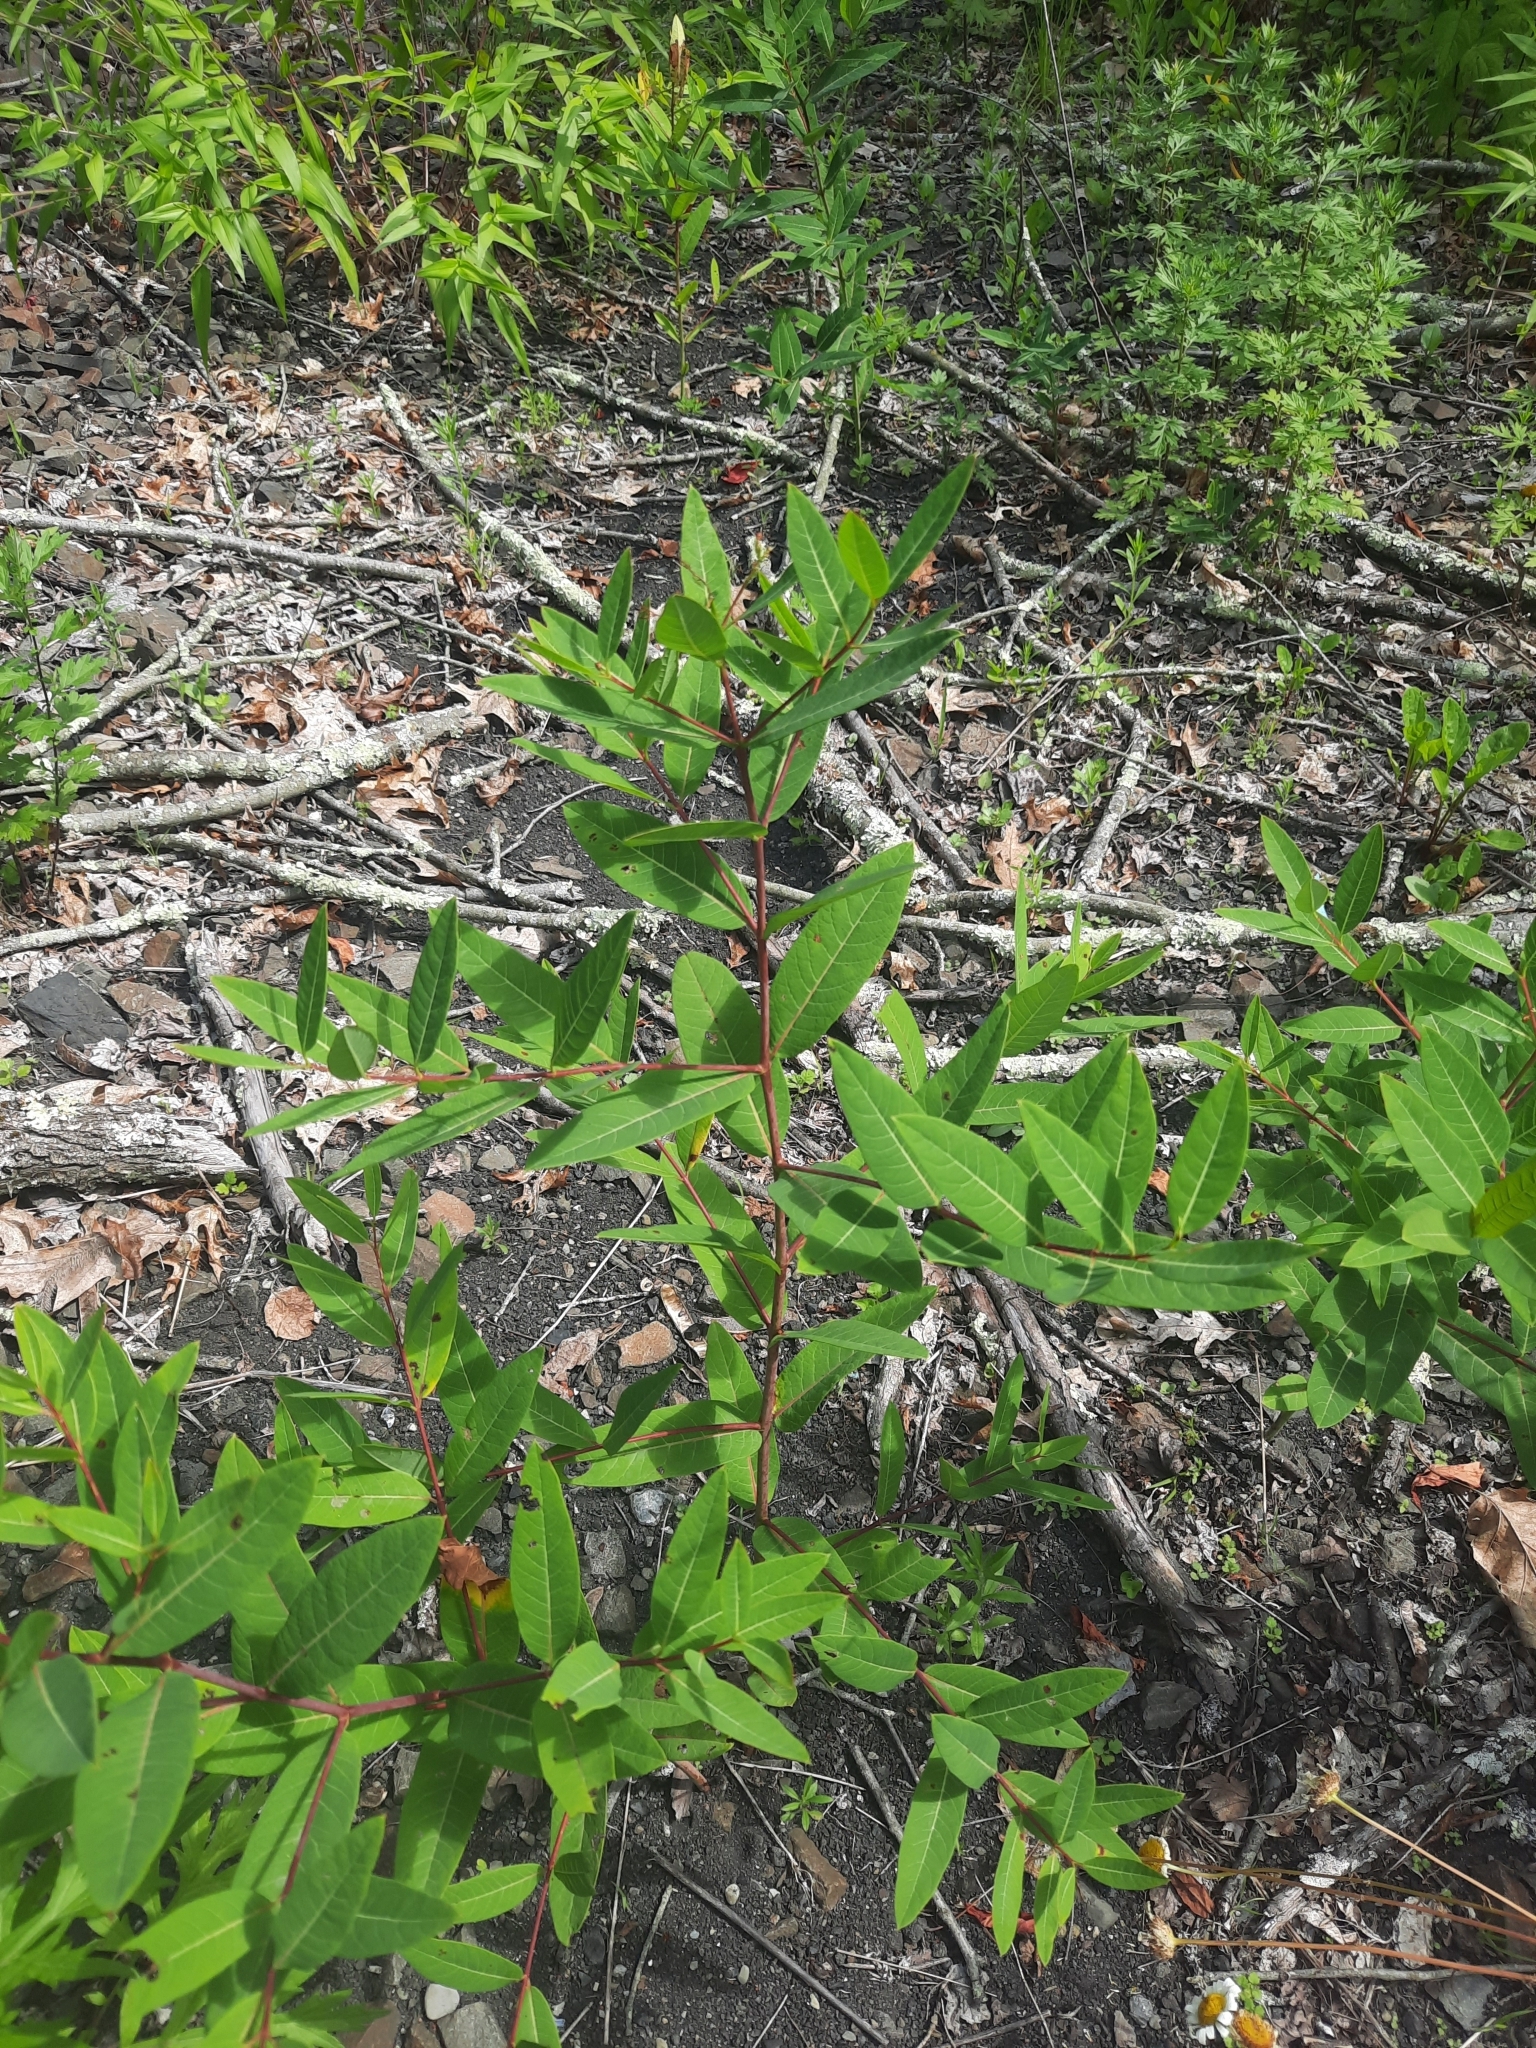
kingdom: Plantae
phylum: Tracheophyta
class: Magnoliopsida
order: Gentianales
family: Apocynaceae
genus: Apocynum
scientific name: Apocynum cannabinum
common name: Hemp dogbane
